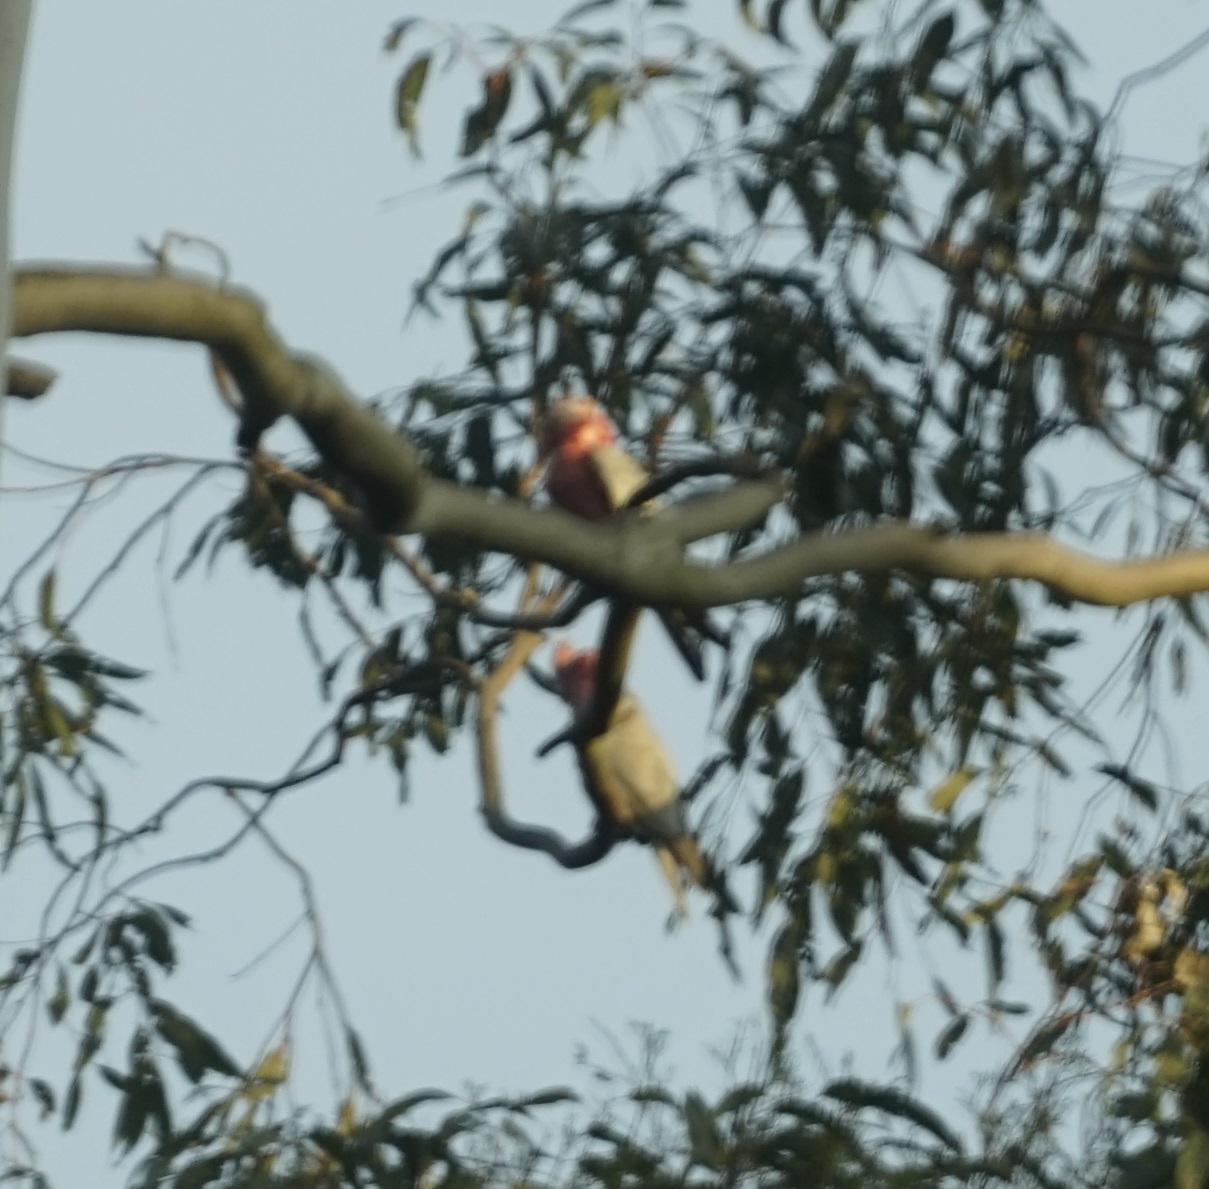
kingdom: Animalia
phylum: Chordata
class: Aves
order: Psittaciformes
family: Psittacidae
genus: Eolophus
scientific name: Eolophus roseicapilla
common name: Galah
